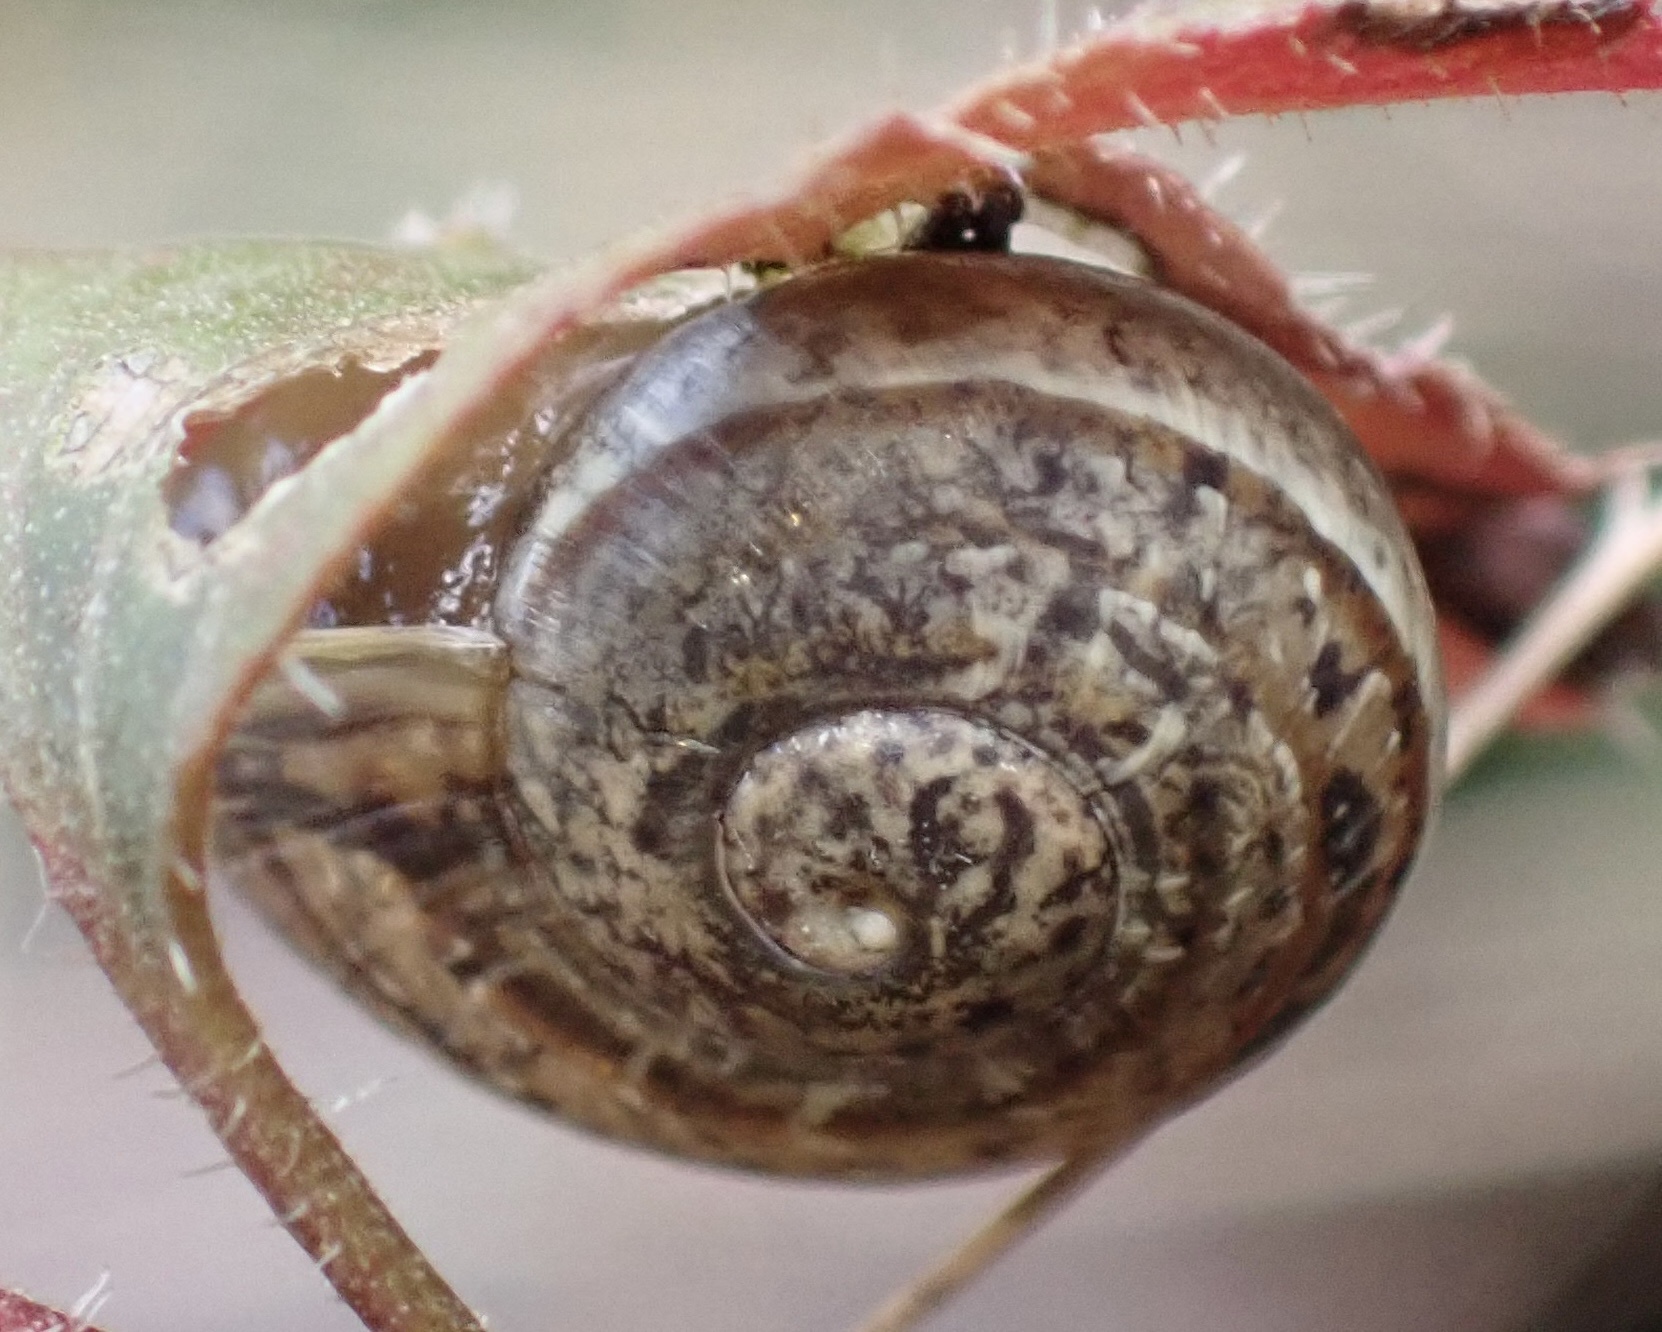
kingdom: Animalia
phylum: Mollusca
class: Gastropoda
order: Stylommatophora
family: Helicidae
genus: Cornu
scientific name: Cornu aspersum
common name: Brown garden snail
